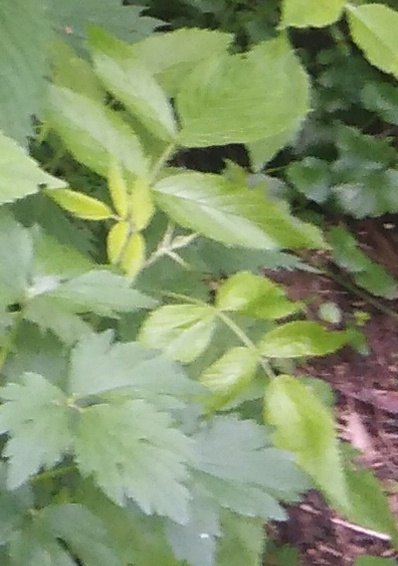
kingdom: Plantae
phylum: Tracheophyta
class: Magnoliopsida
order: Rosales
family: Rosaceae
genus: Rubus
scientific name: Rubus idaeus
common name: Raspberry
